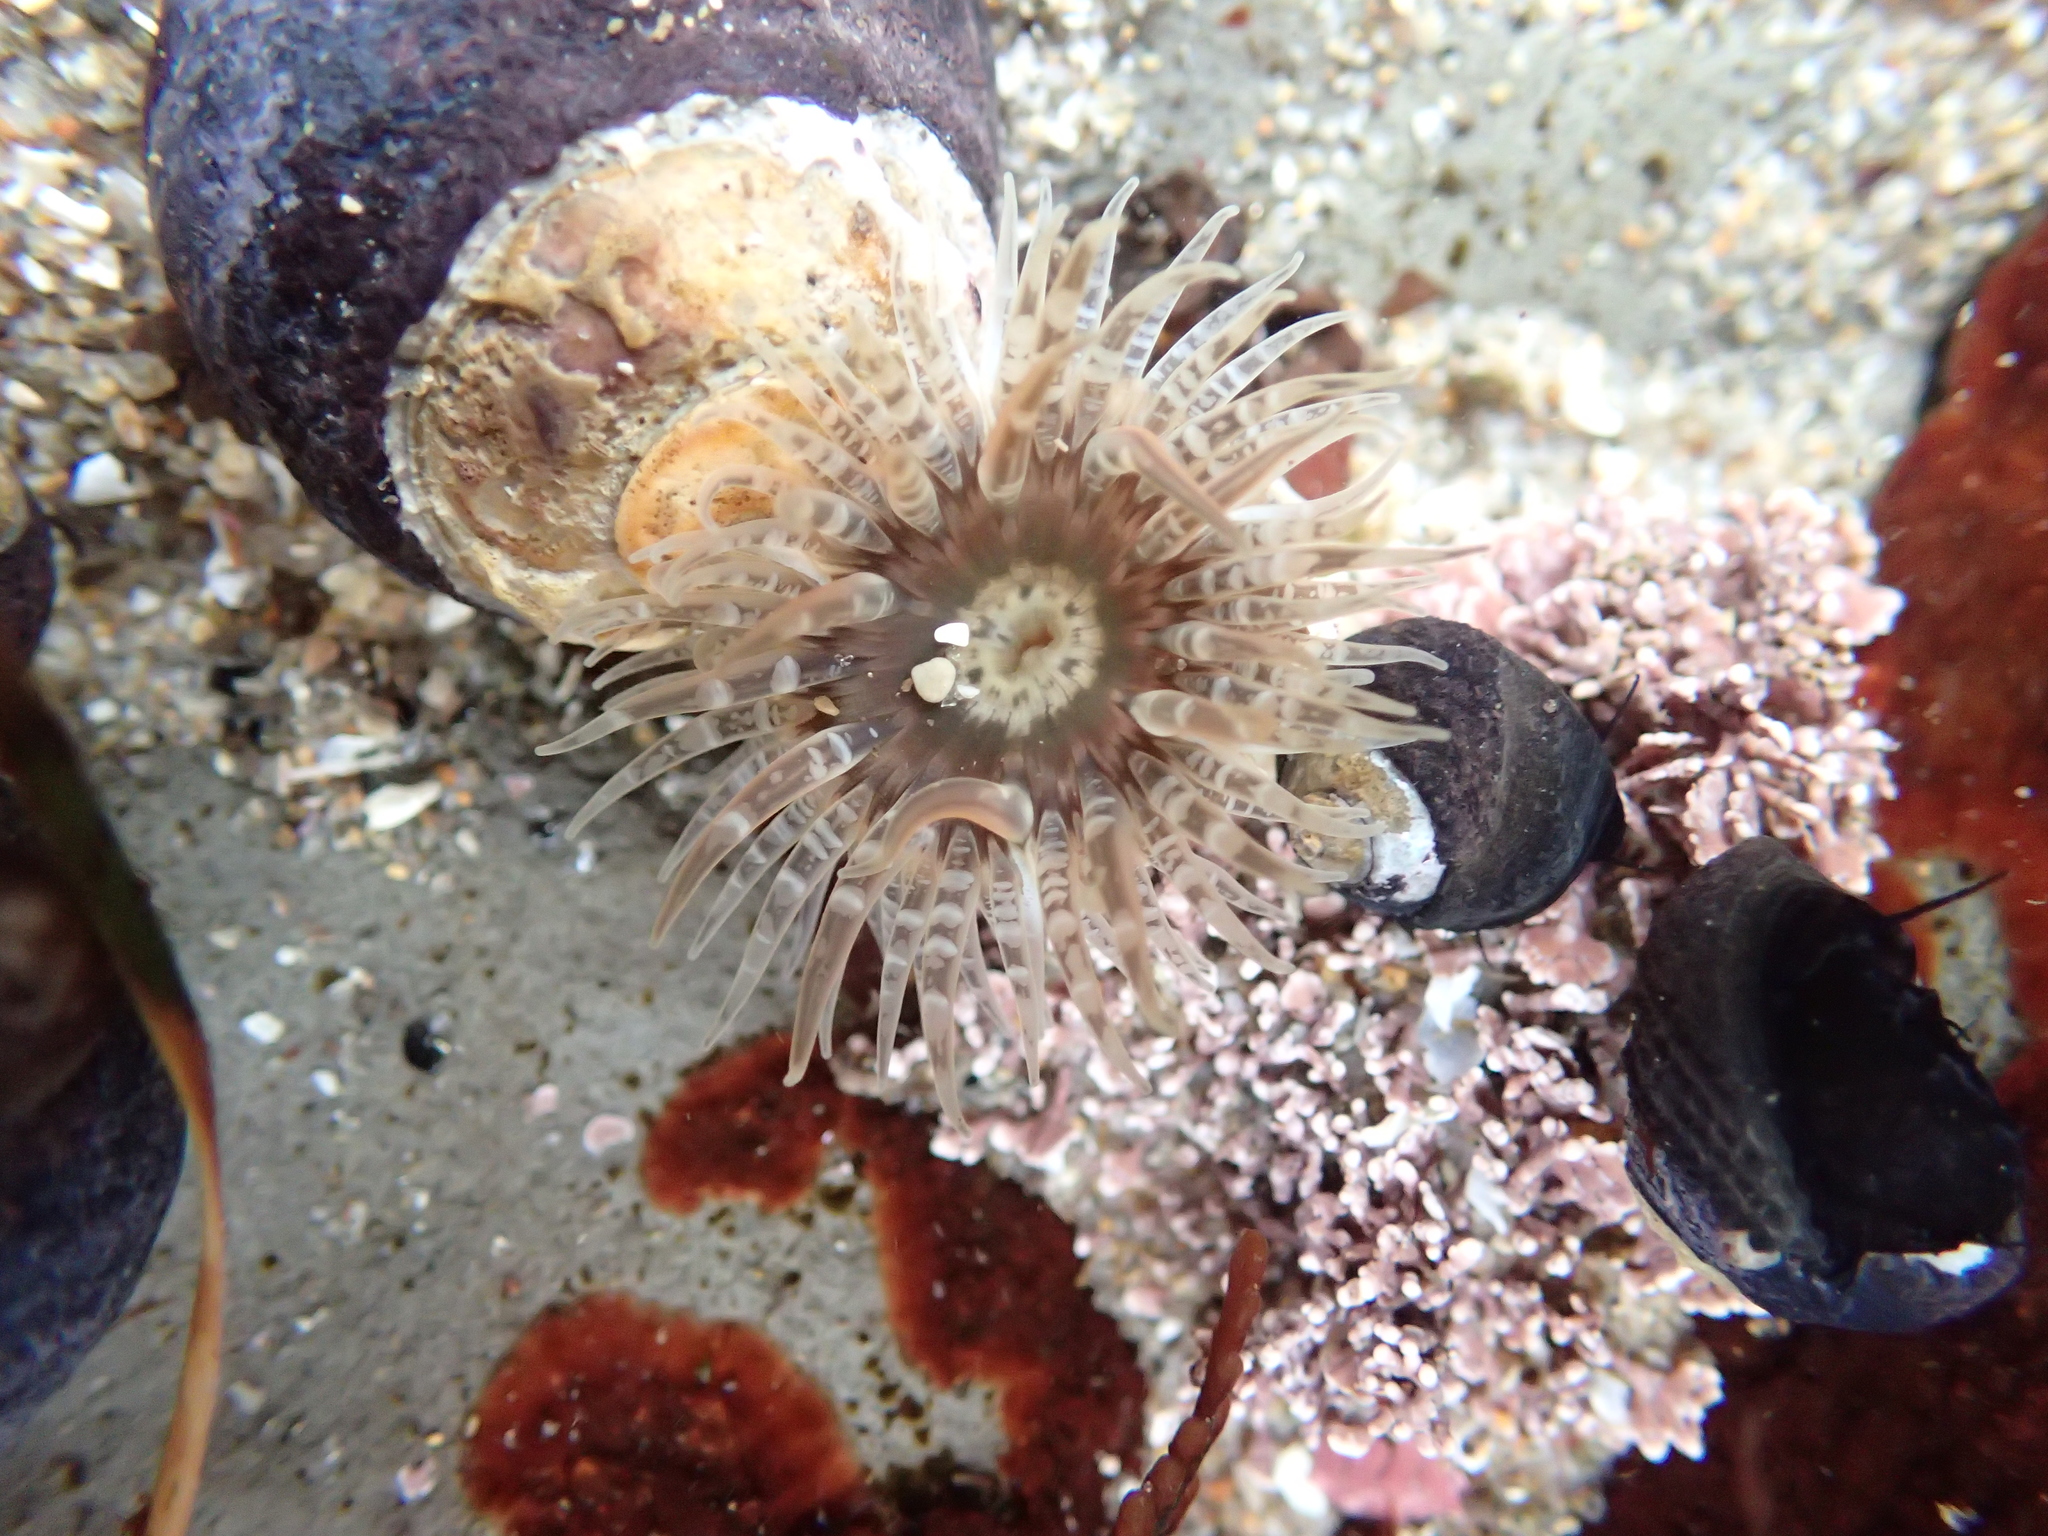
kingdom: Animalia
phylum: Cnidaria
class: Anthozoa
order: Actiniaria
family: Actiniidae
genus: Anthopleura
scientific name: Anthopleura artemisia
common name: Buried sea anemone
